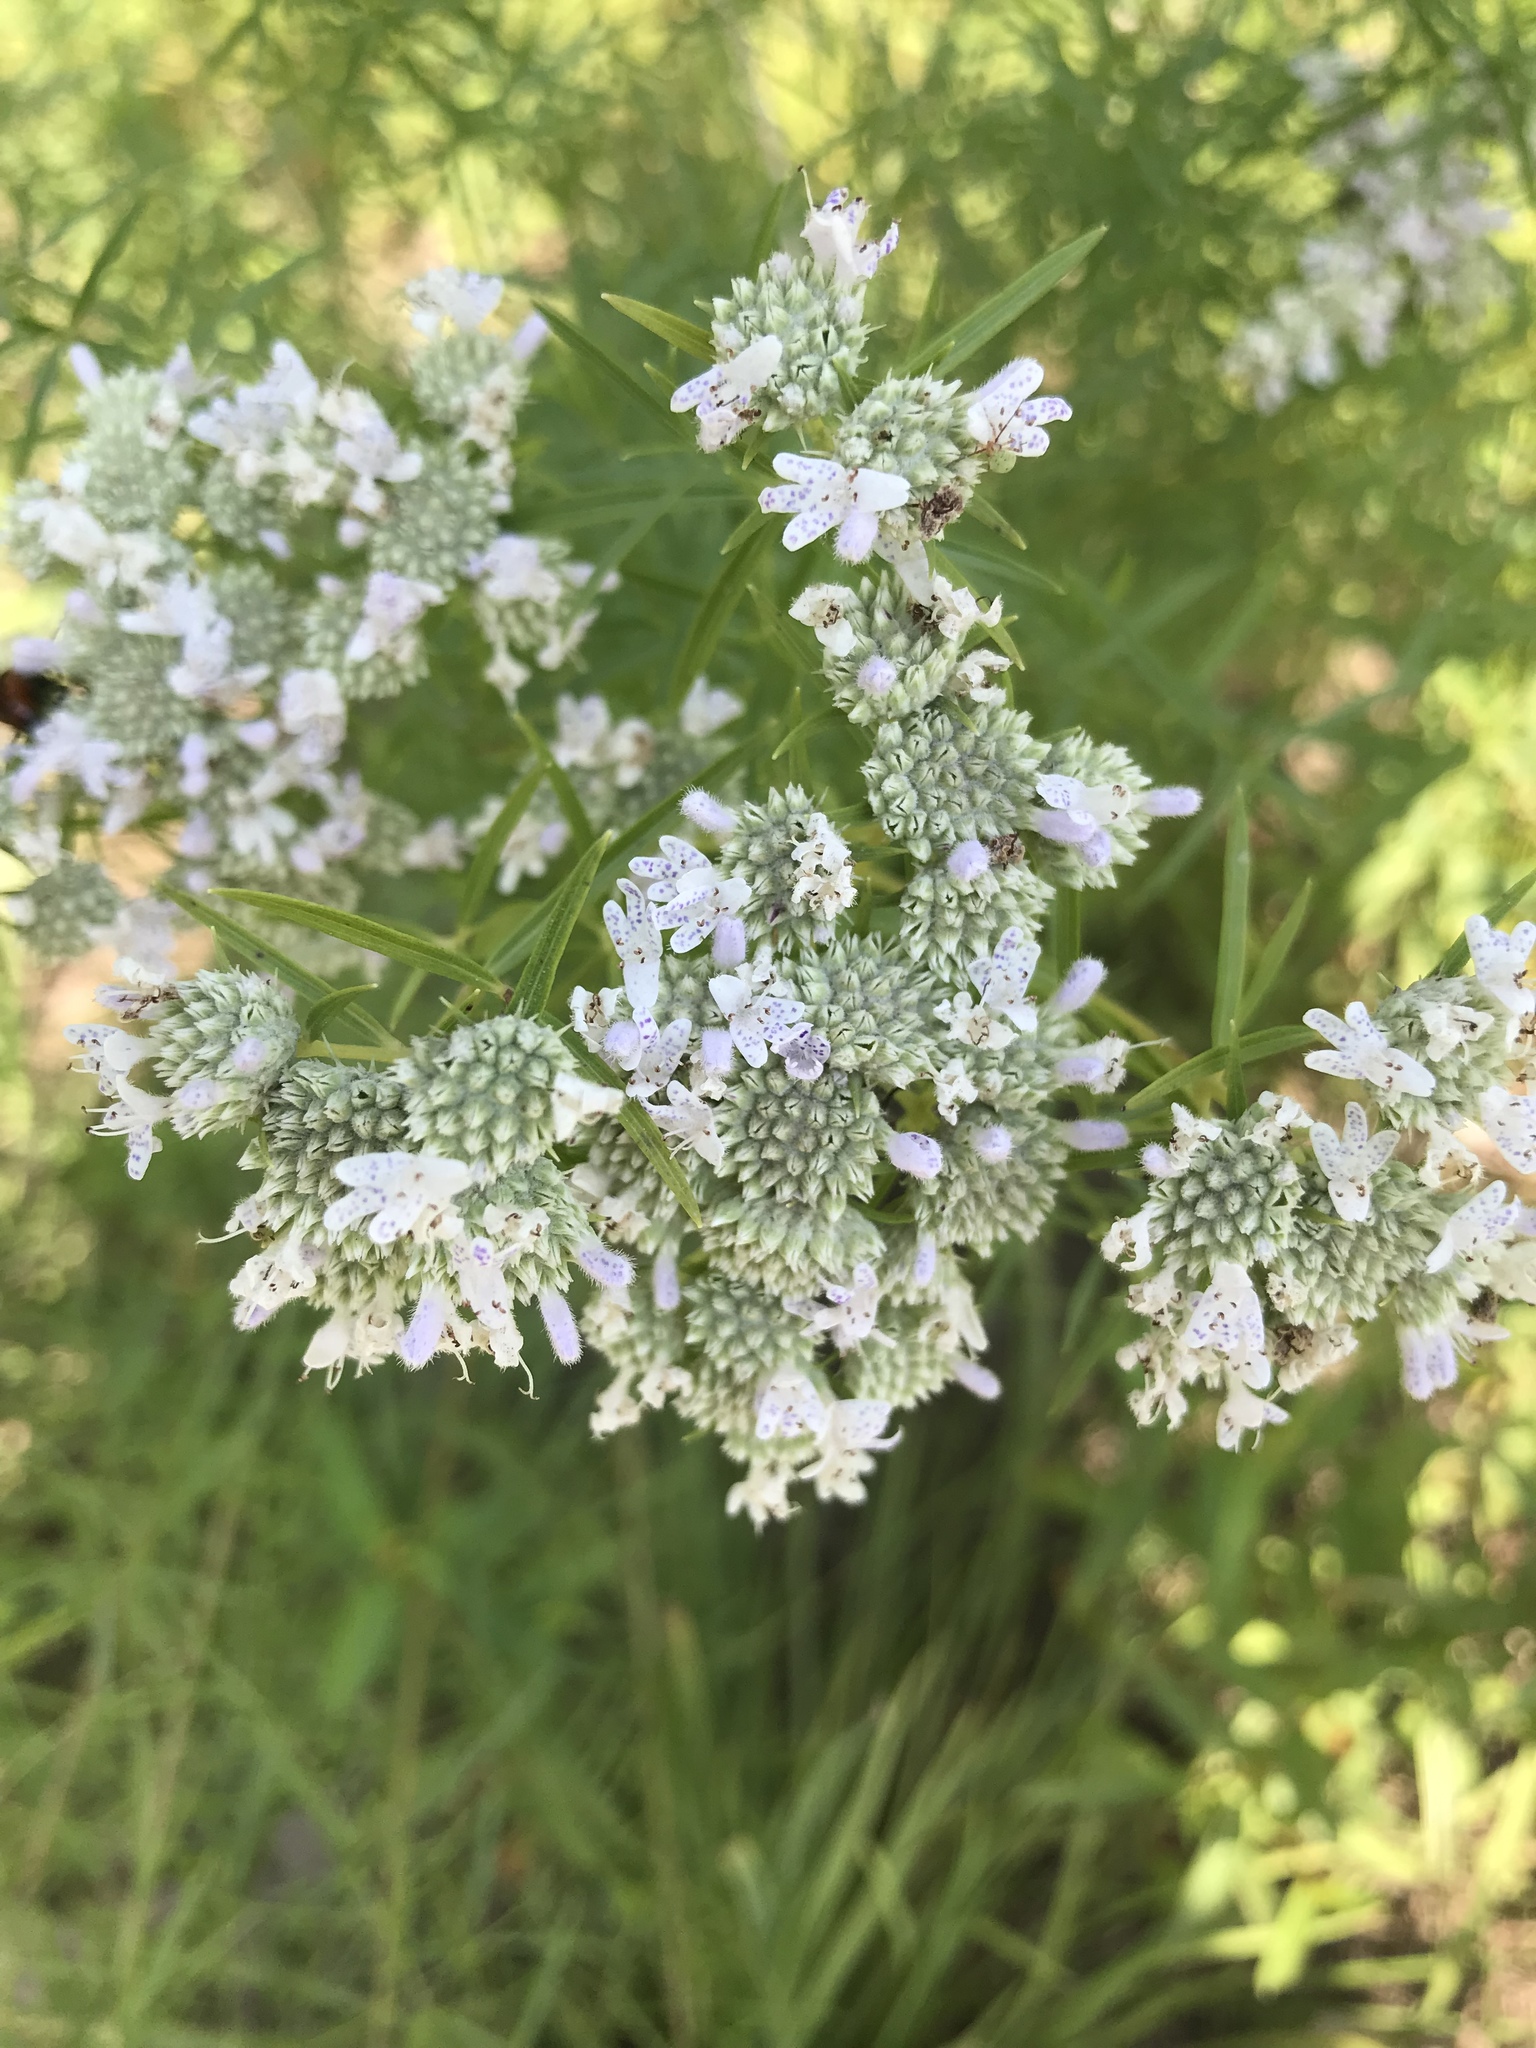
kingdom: Plantae
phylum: Tracheophyta
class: Magnoliopsida
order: Lamiales
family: Lamiaceae
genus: Pycnanthemum
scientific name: Pycnanthemum tenuifolium
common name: Narrow-leaf mountain-mint
